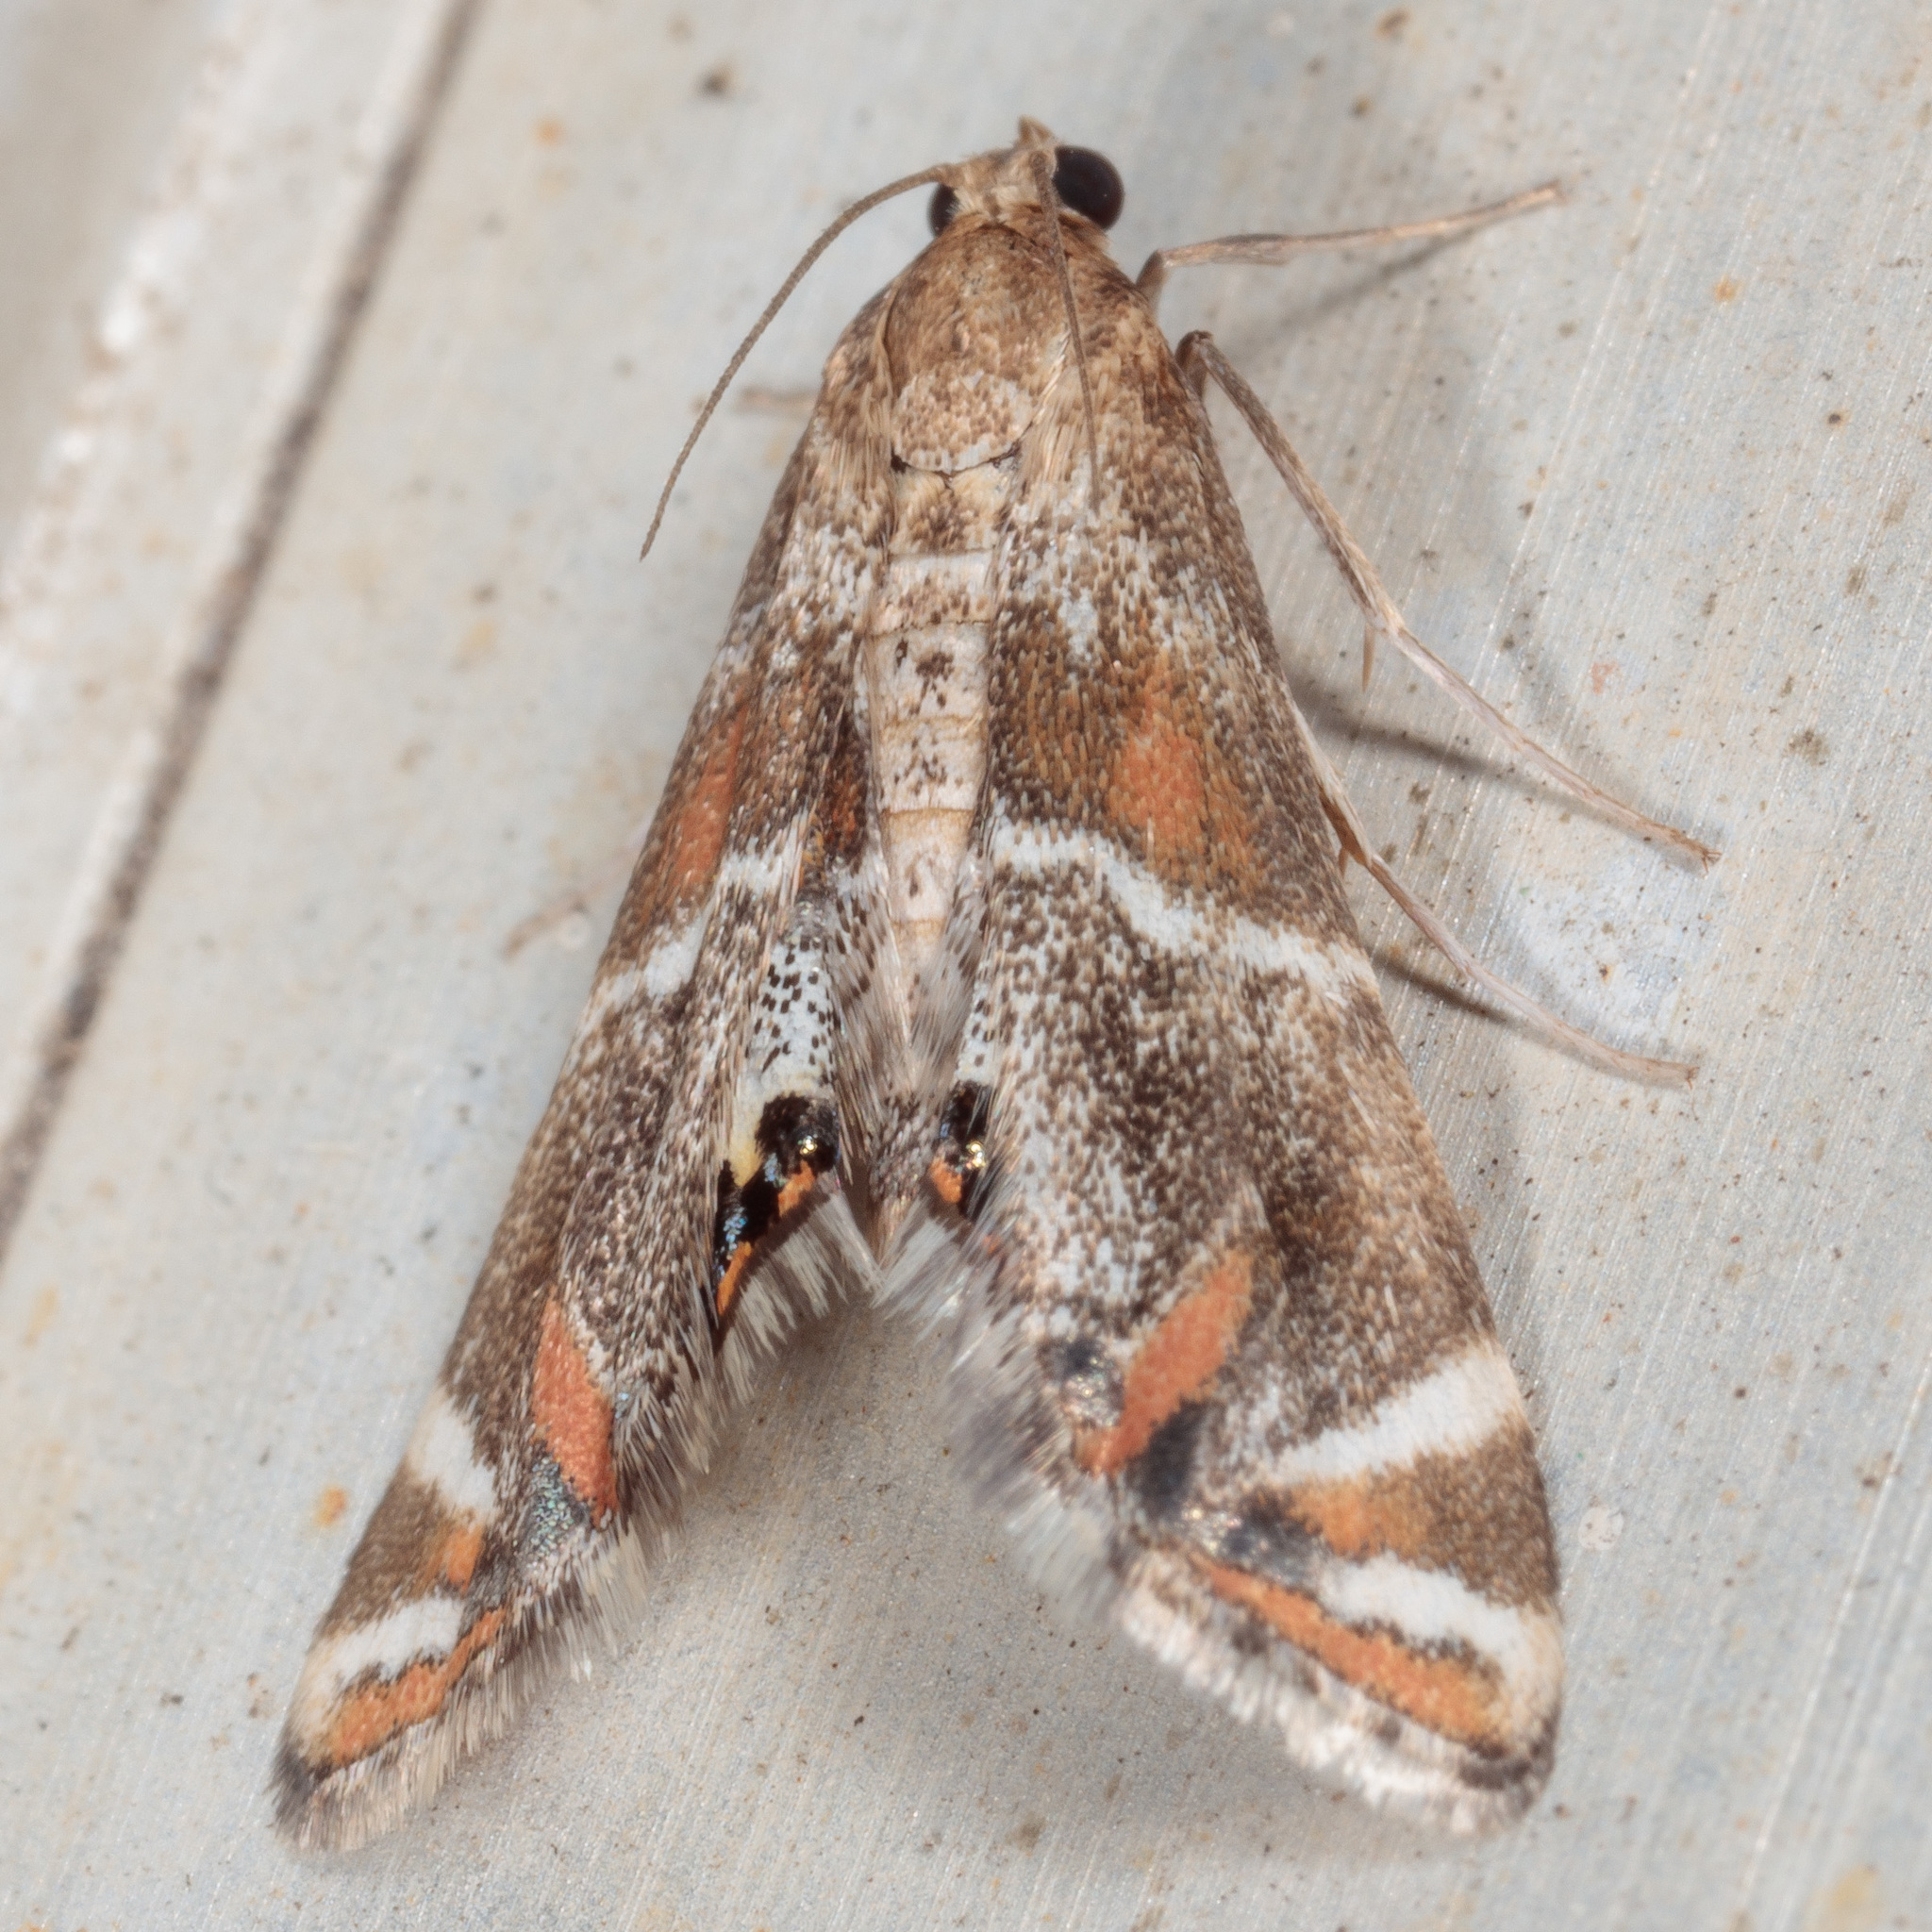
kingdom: Animalia
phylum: Arthropoda
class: Insecta
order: Lepidoptera
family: Crambidae
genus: Petrophila
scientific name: Petrophila jaliscalis
